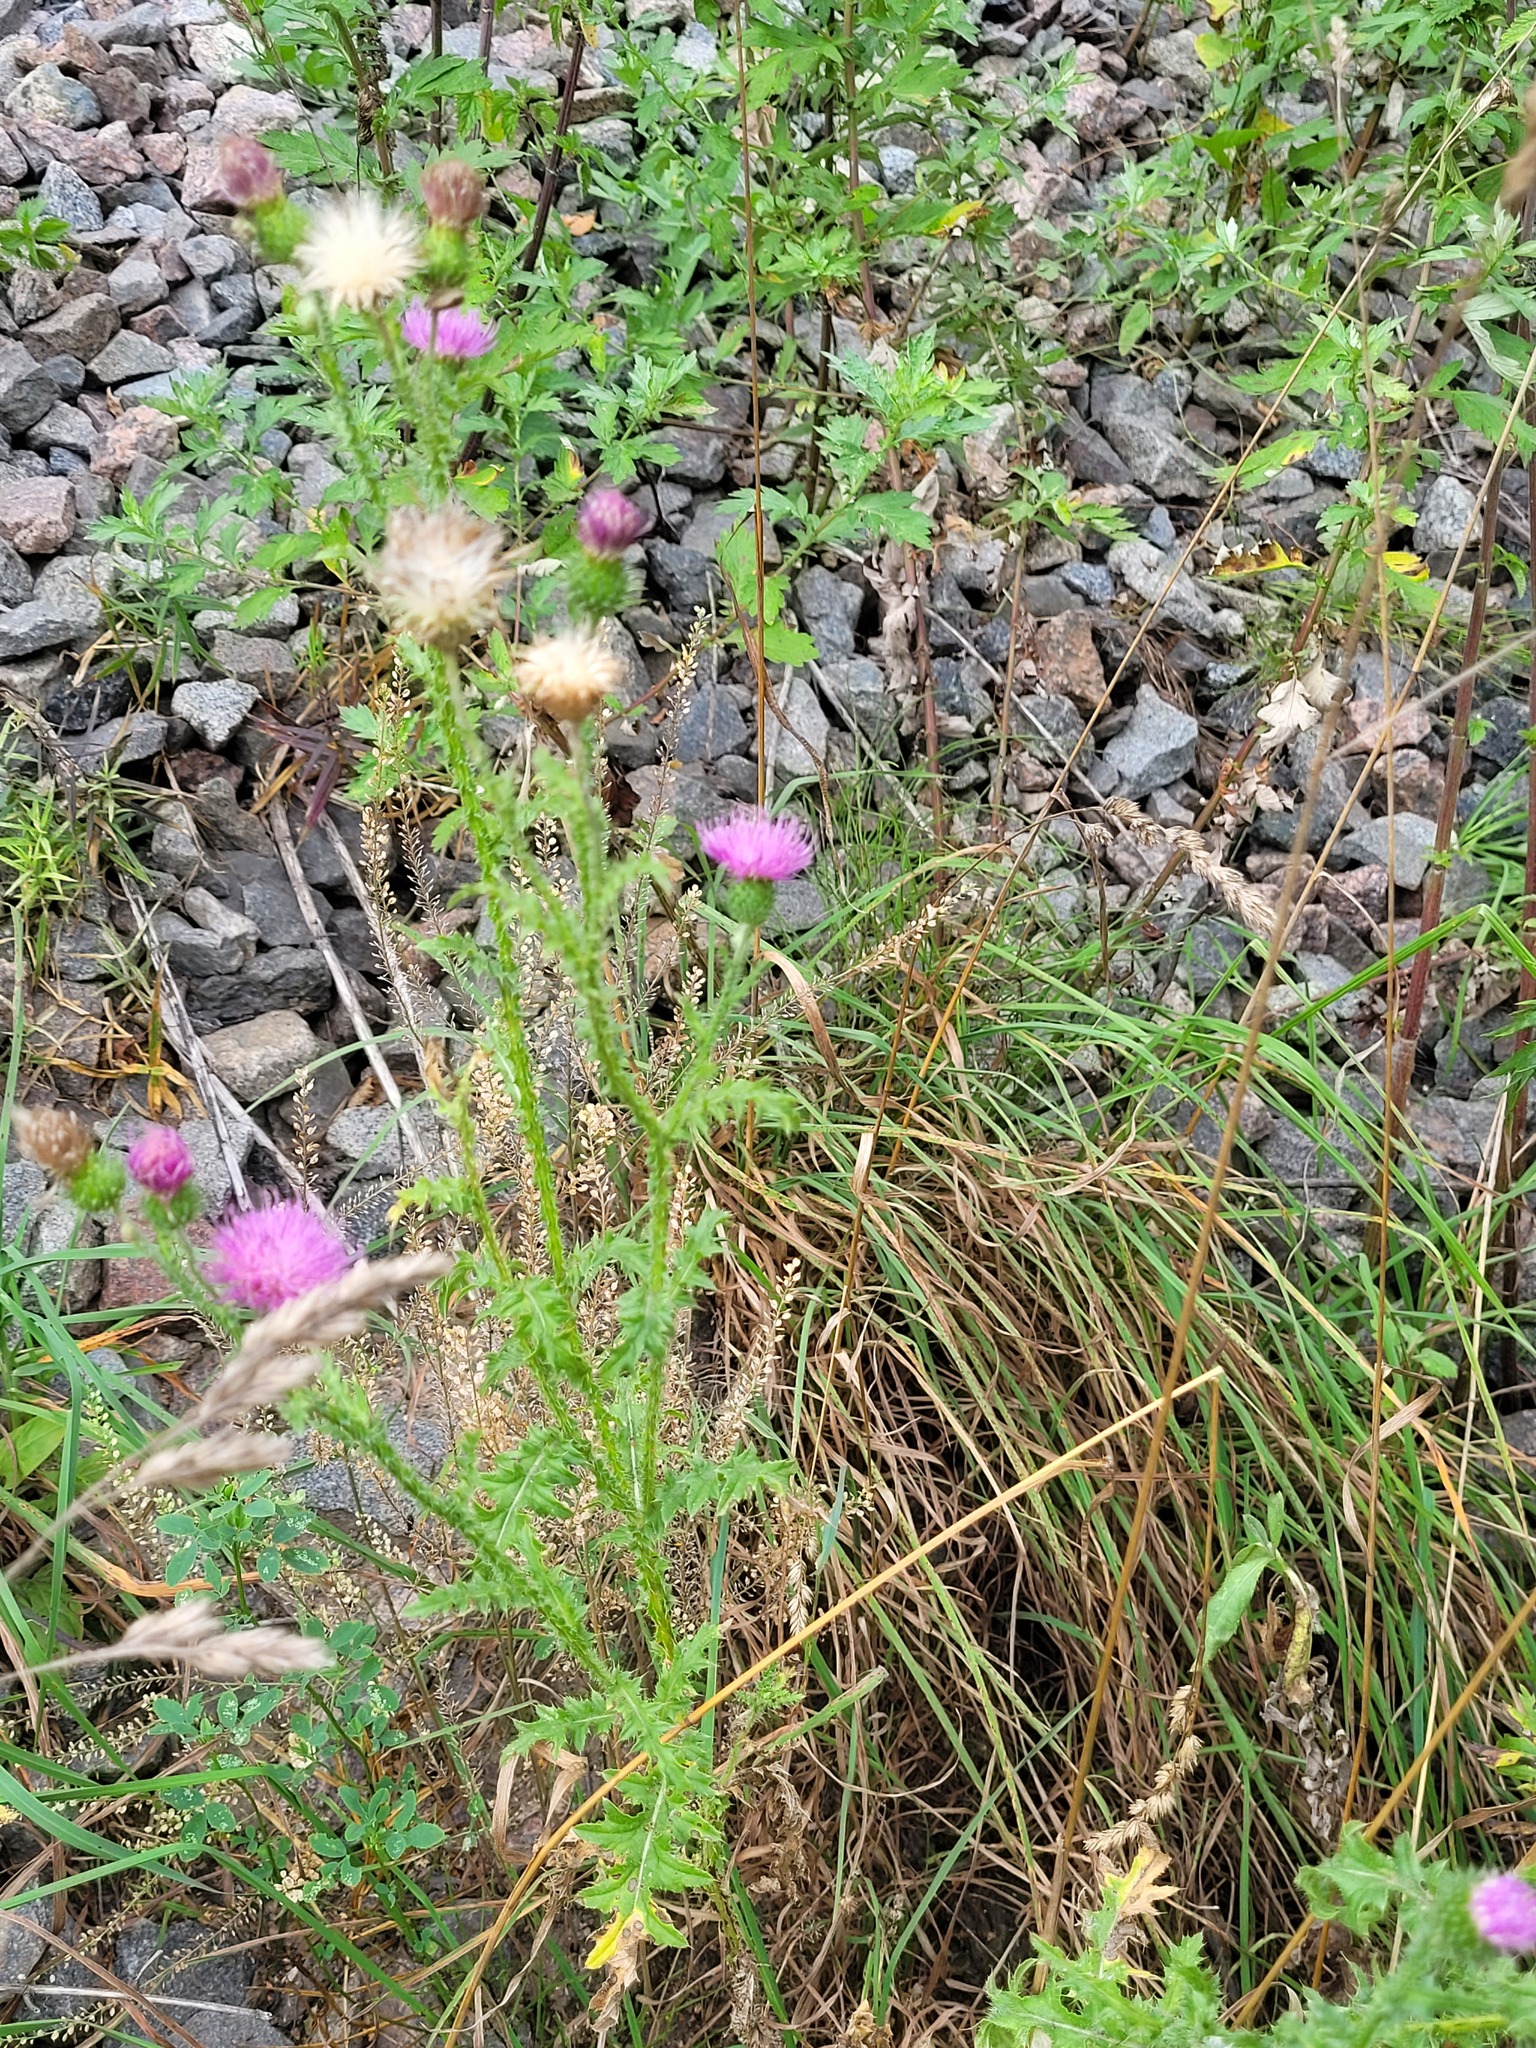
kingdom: Plantae
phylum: Tracheophyta
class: Magnoliopsida
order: Asterales
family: Asteraceae
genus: Carduus
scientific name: Carduus acanthoides
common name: Plumeless thistle
